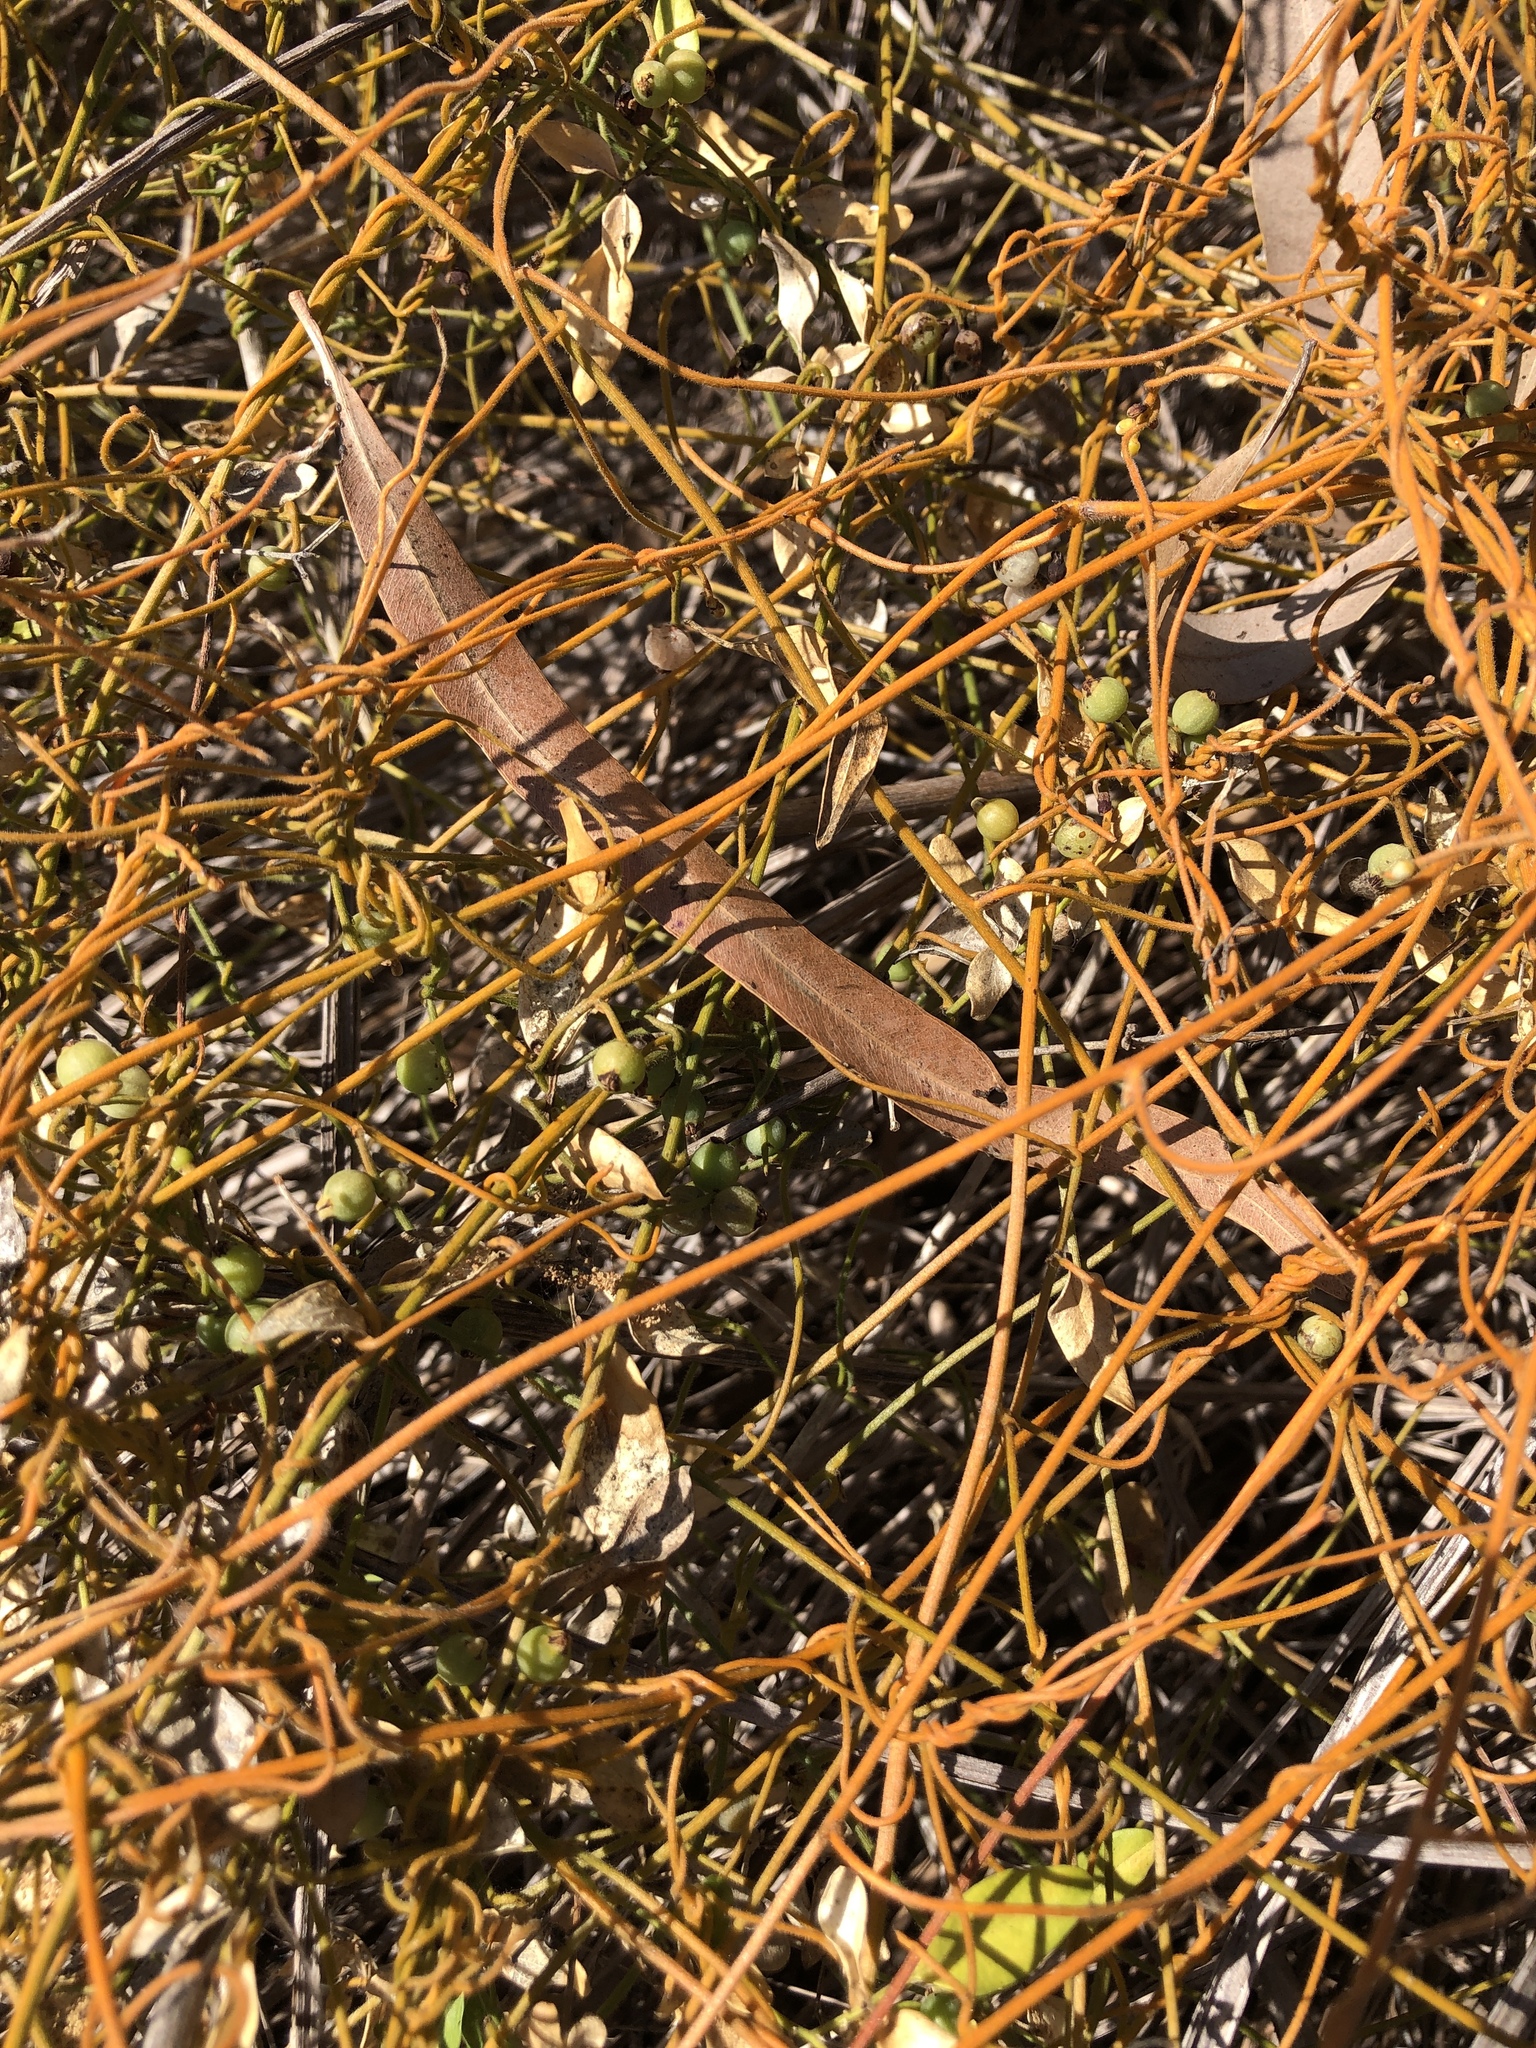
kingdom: Plantae
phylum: Tracheophyta
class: Magnoliopsida
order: Laurales
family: Lauraceae
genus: Cassytha
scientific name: Cassytha filiformis
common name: Dodder-laurel
